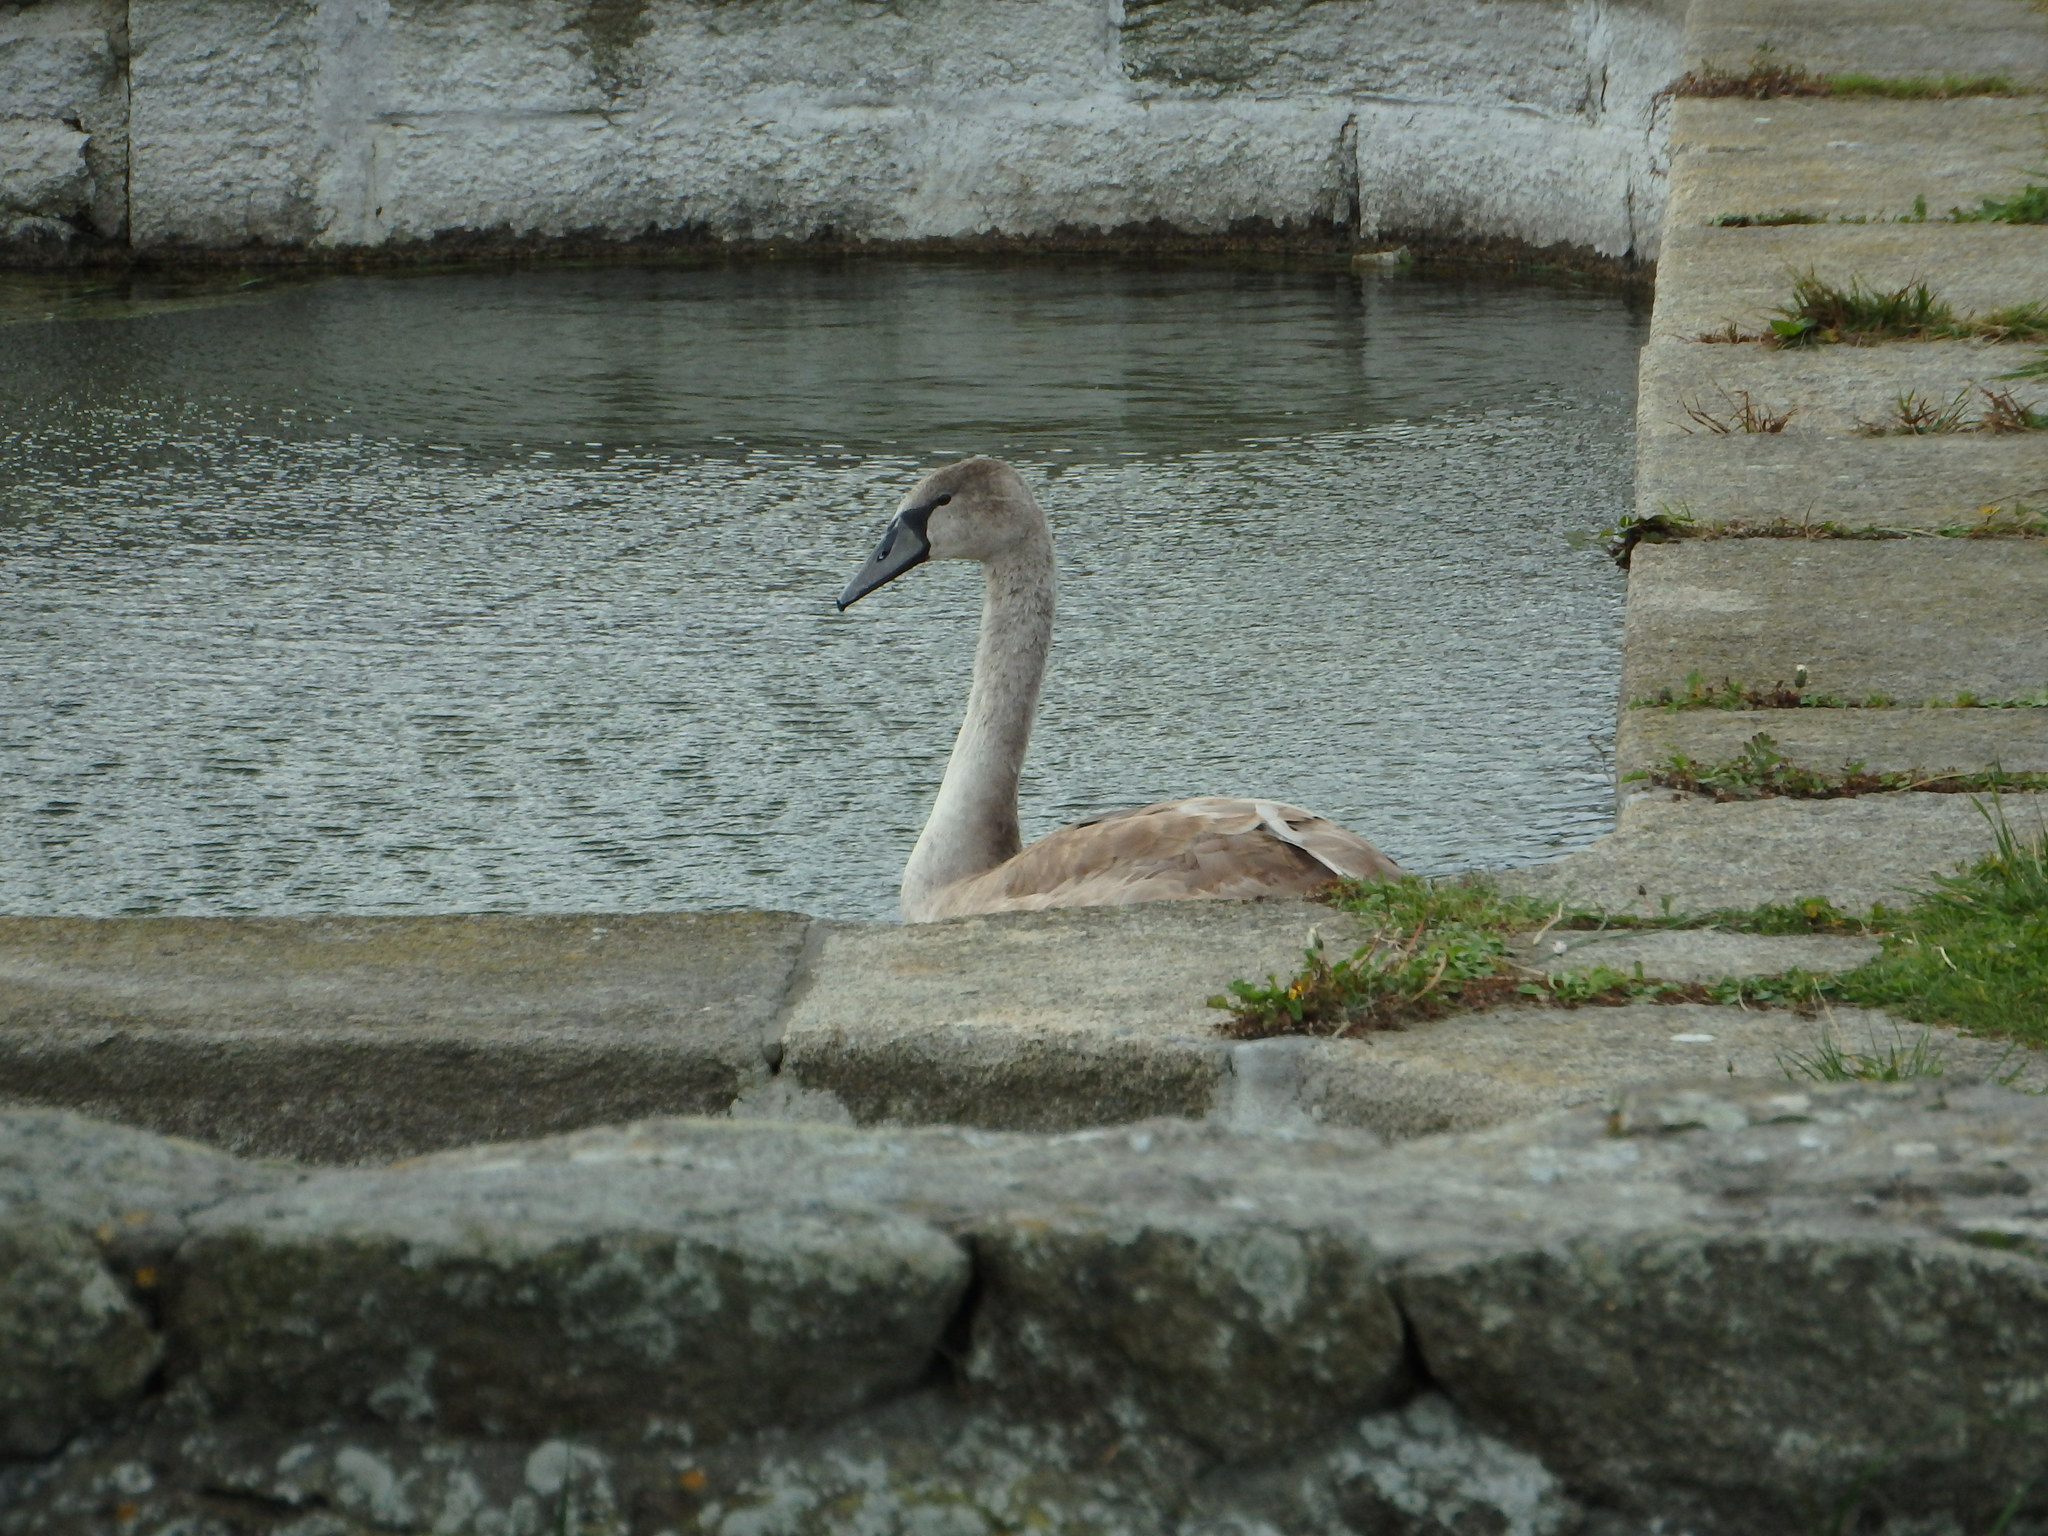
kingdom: Animalia
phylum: Chordata
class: Aves
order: Anseriformes
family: Anatidae
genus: Cygnus
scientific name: Cygnus olor
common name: Mute swan
